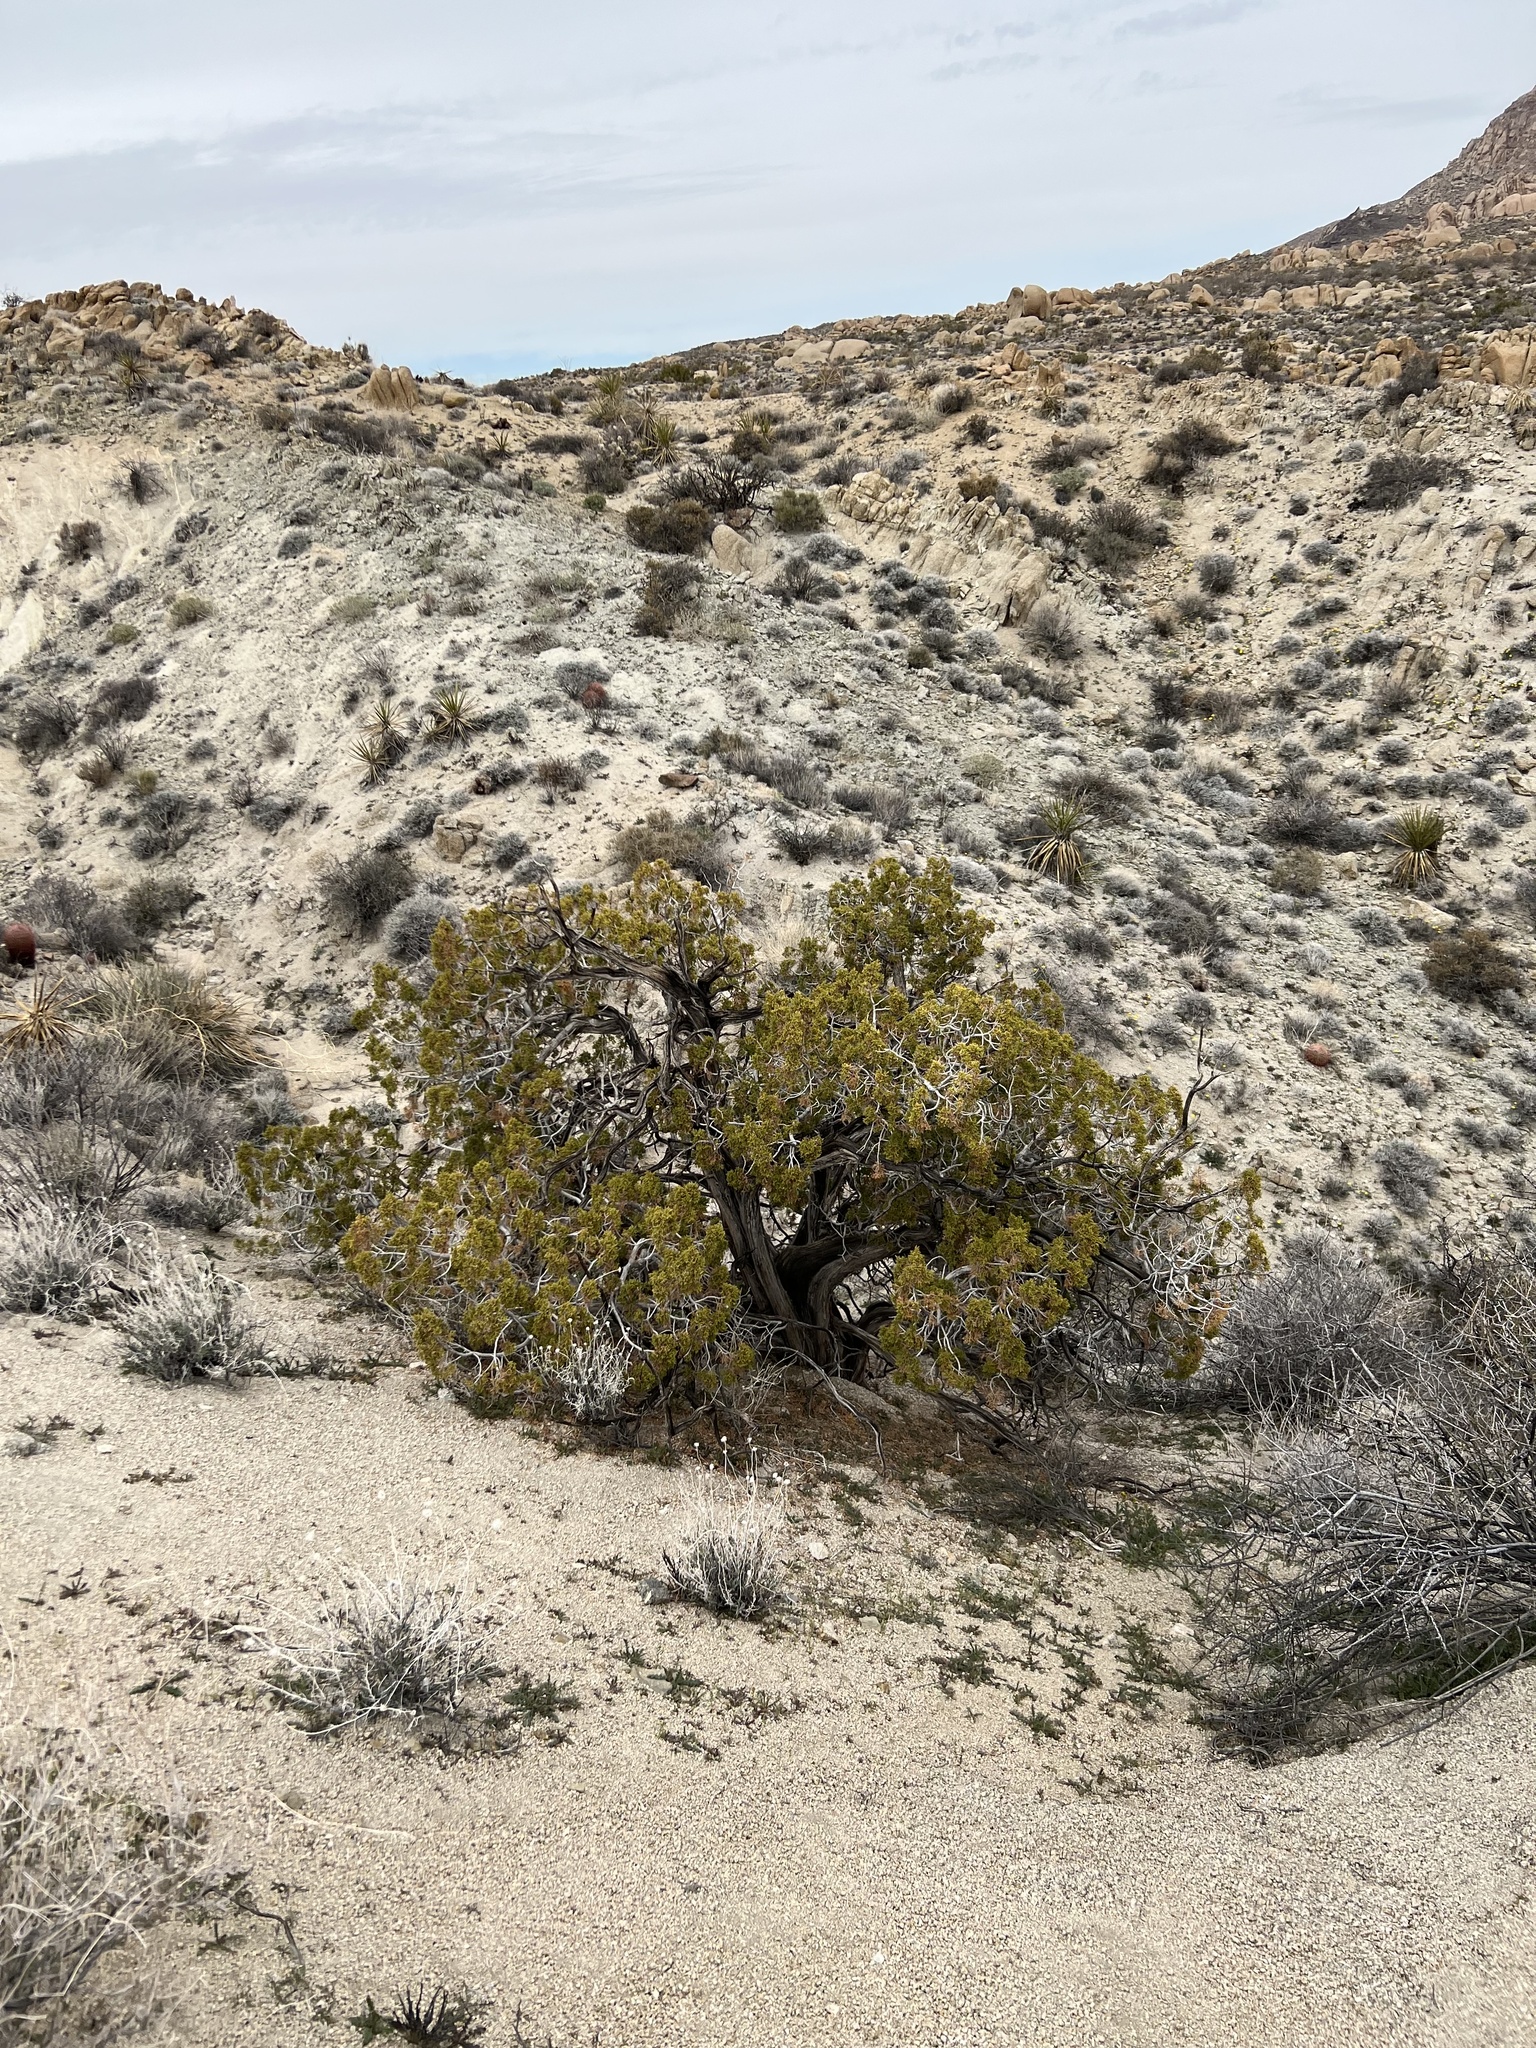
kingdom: Plantae
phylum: Tracheophyta
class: Pinopsida
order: Pinales
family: Cupressaceae
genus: Juniperus
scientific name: Juniperus californica
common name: California juniper
